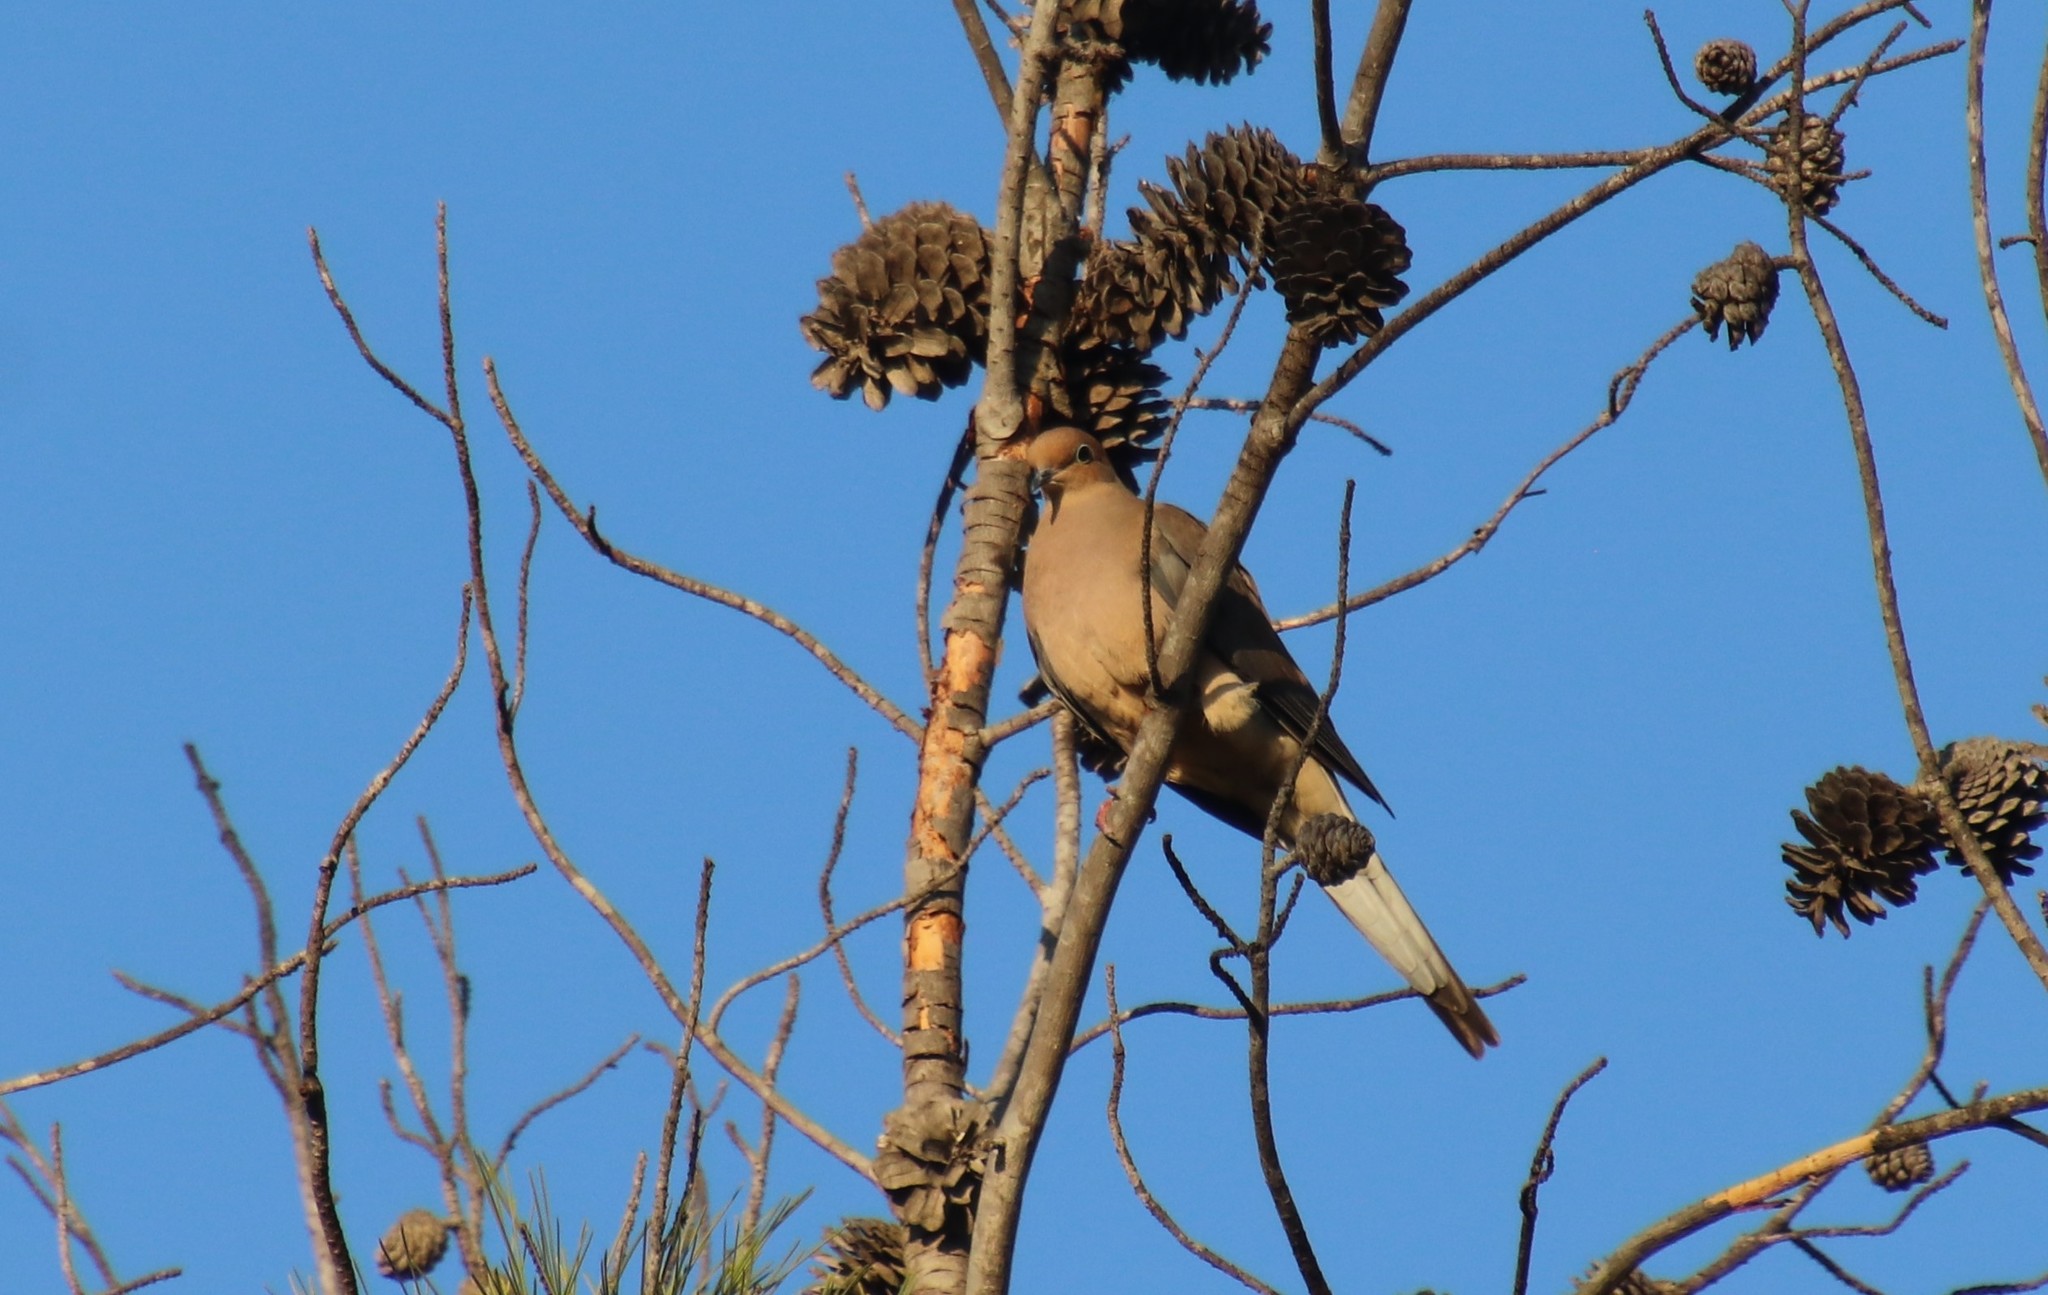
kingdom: Animalia
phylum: Chordata
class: Aves
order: Columbiformes
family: Columbidae
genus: Zenaida
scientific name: Zenaida macroura
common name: Mourning dove
